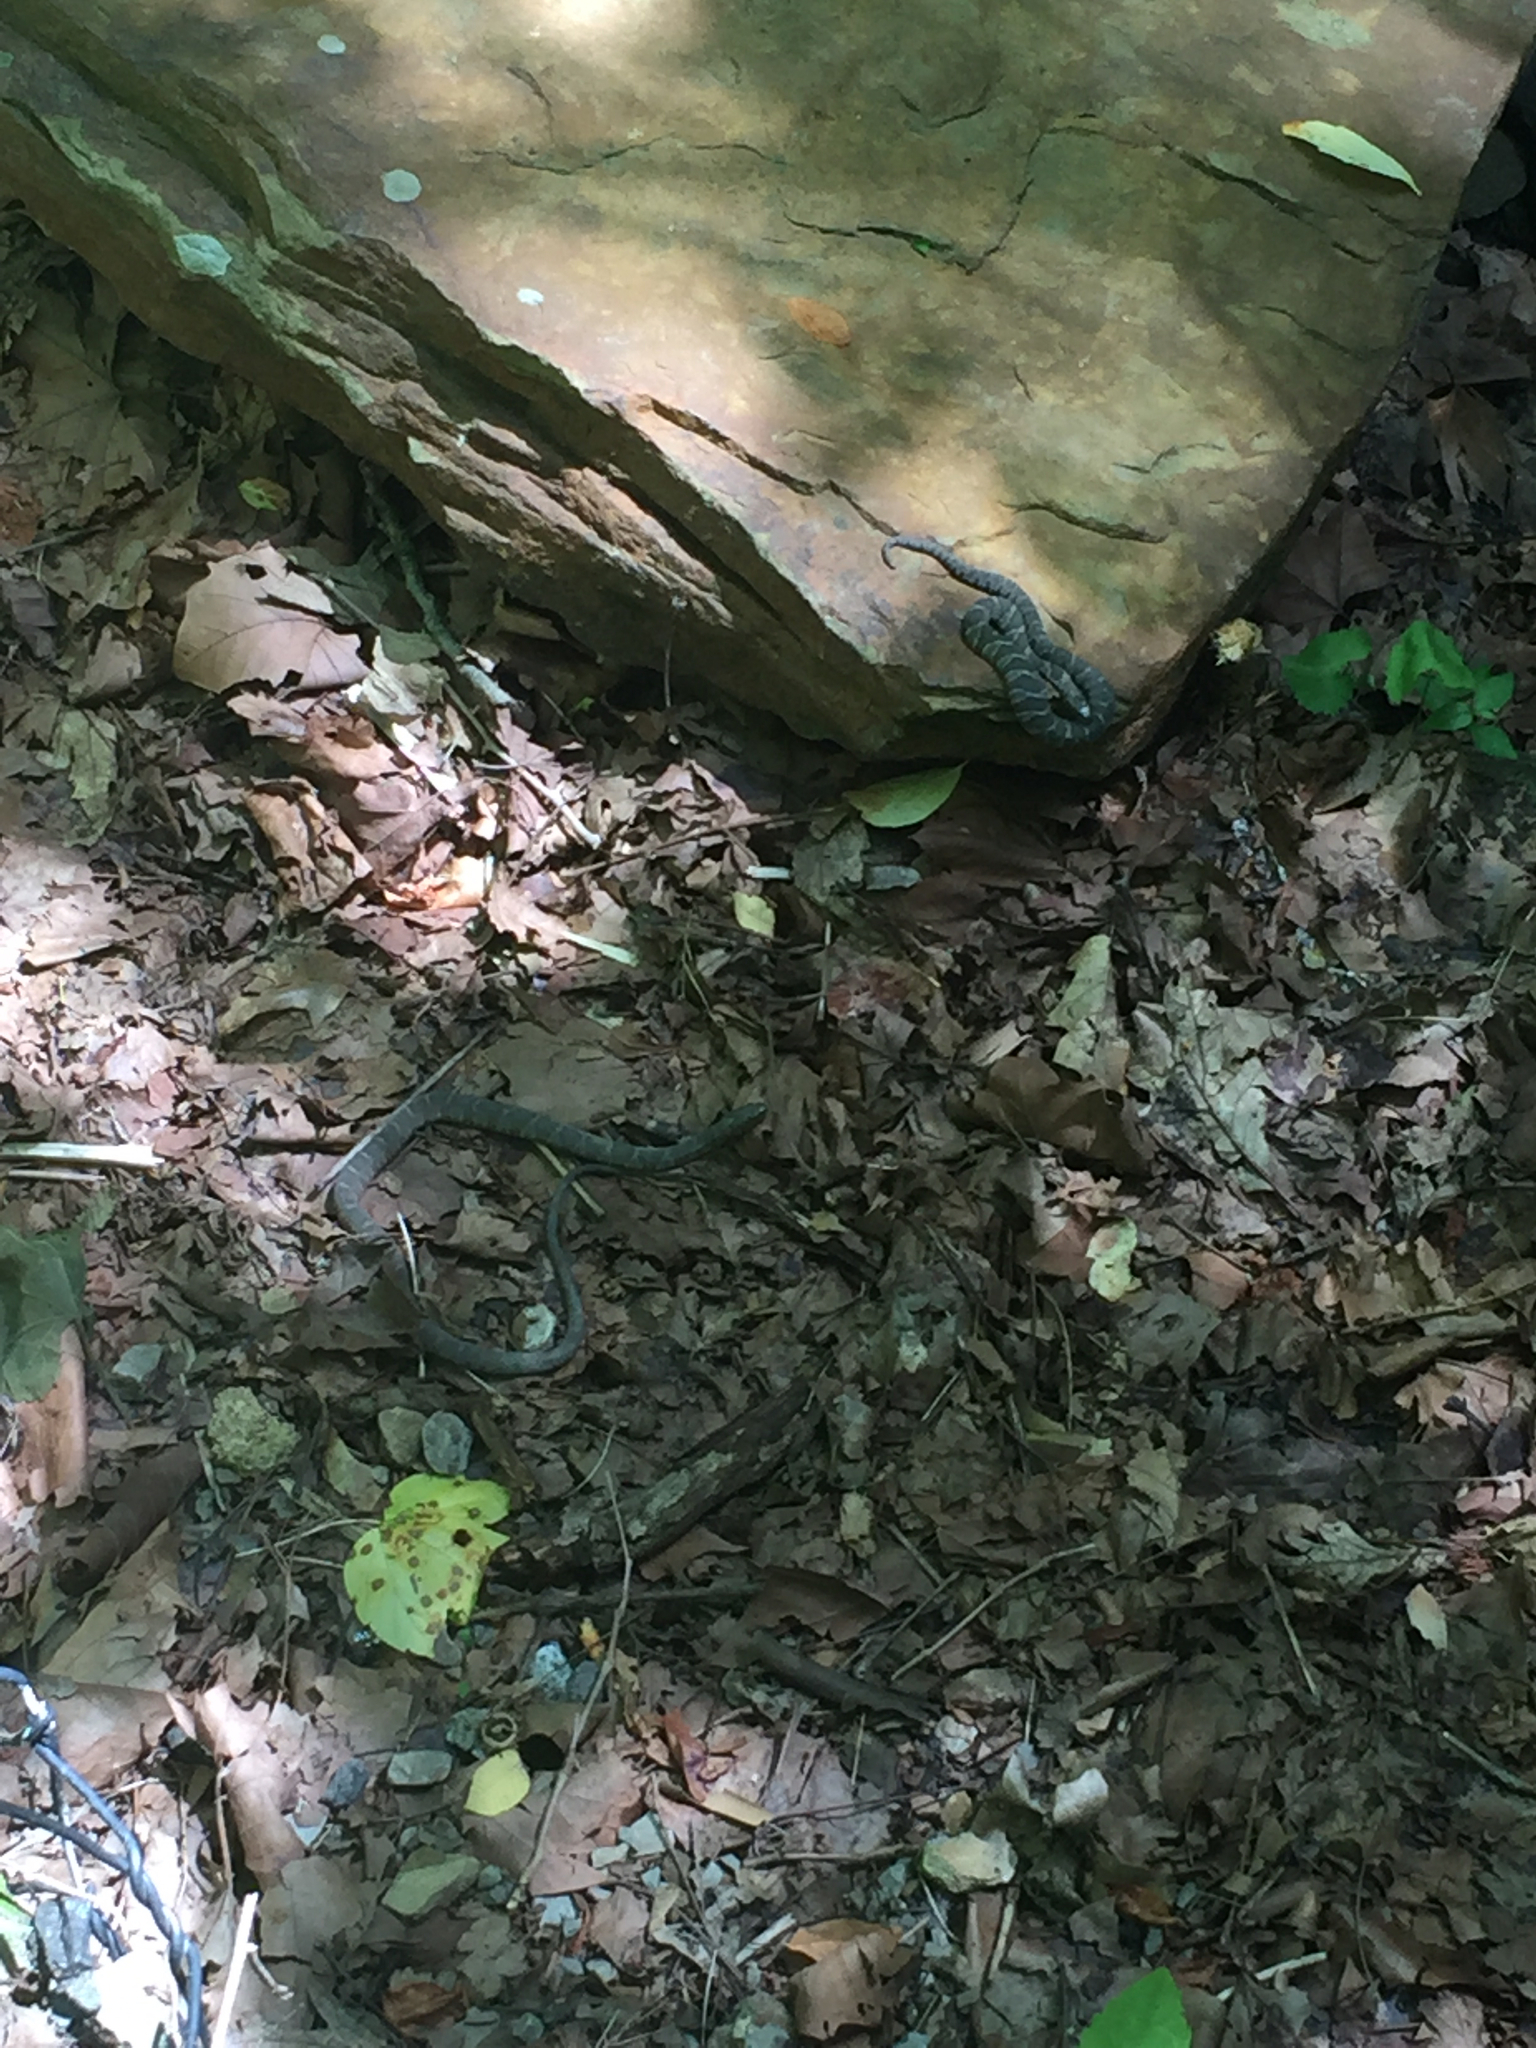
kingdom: Animalia
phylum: Chordata
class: Squamata
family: Colubridae
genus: Nerodia
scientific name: Nerodia sipedon
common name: Northern water snake
